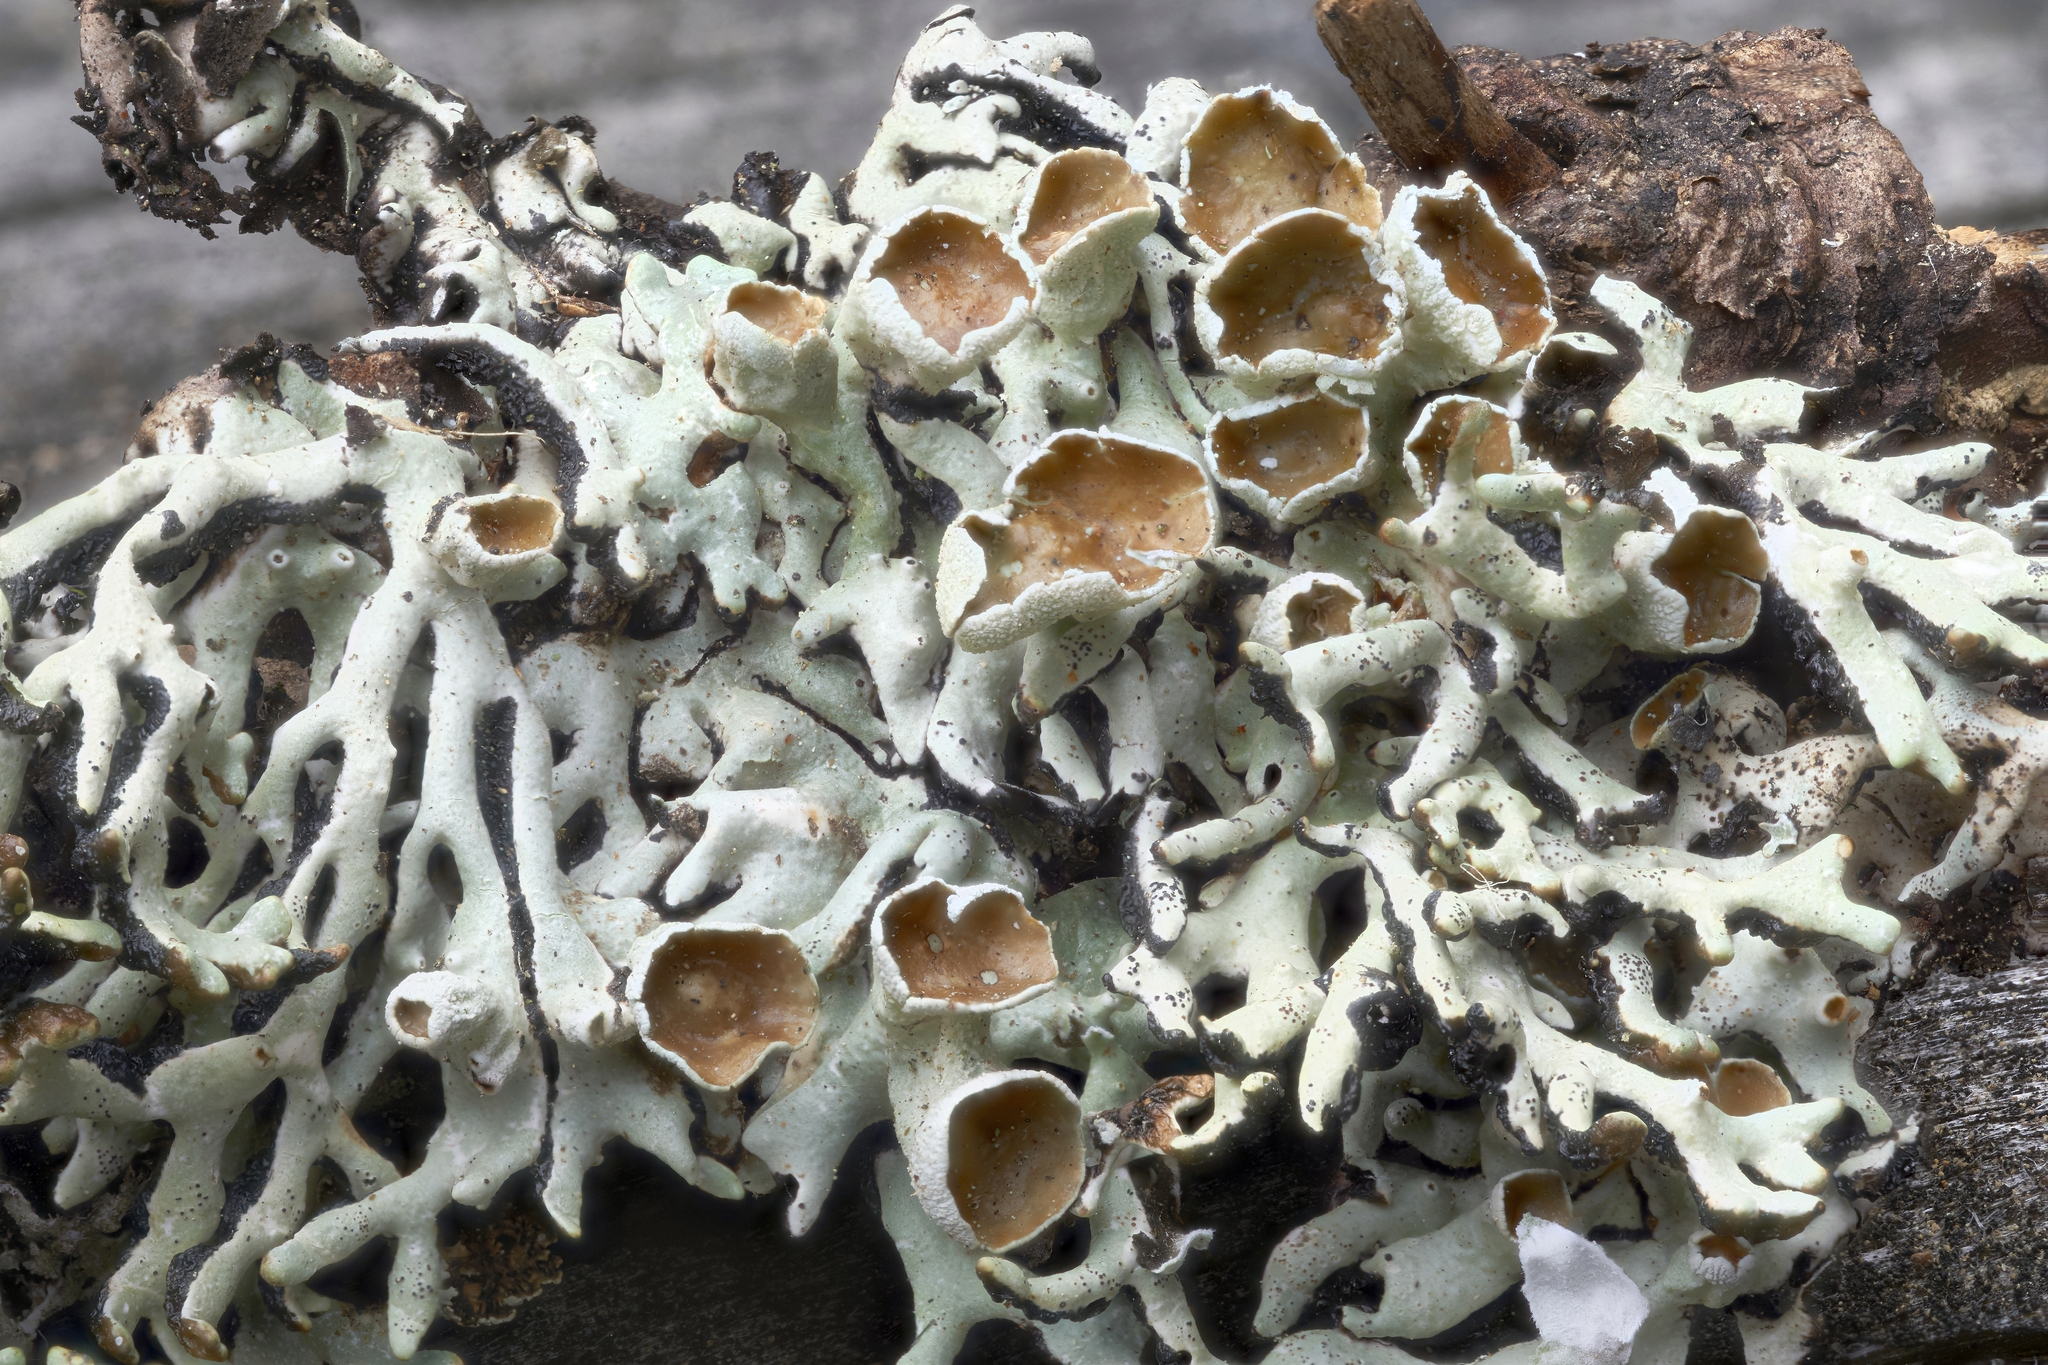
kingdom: Fungi
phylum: Ascomycota
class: Lecanoromycetes
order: Lecanorales
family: Parmeliaceae
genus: Hypogymnia
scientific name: Hypogymnia krogiae
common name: Freckled tube lichen
